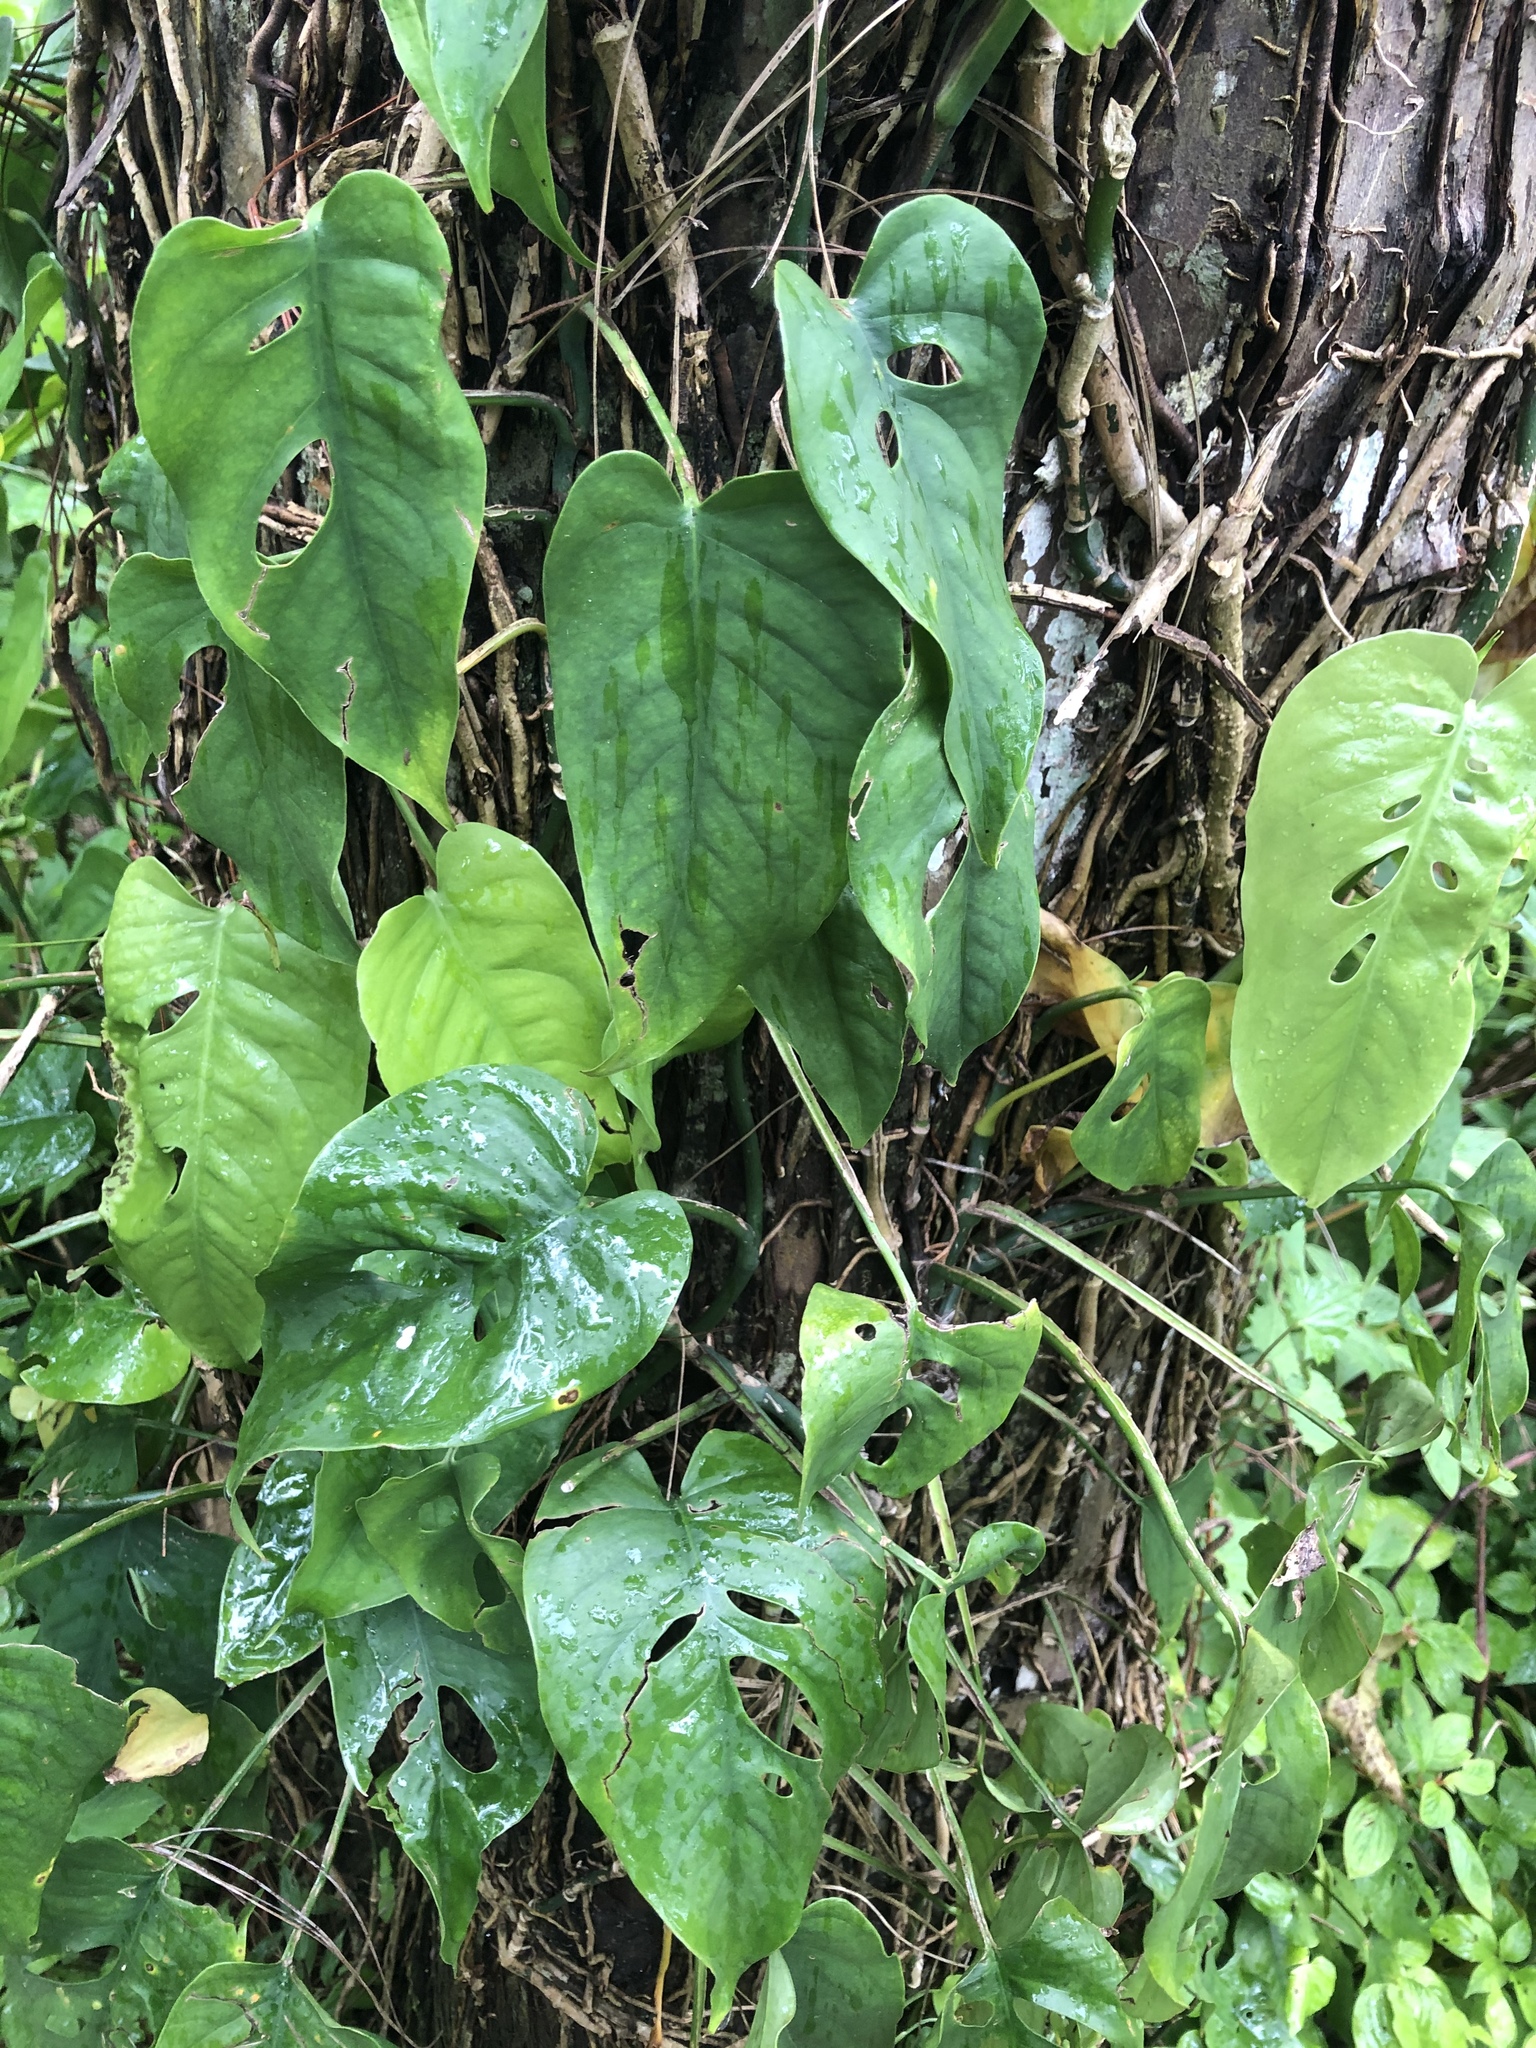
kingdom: Plantae
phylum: Tracheophyta
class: Liliopsida
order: Alismatales
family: Araceae
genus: Monstera
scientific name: Monstera siltepecana
